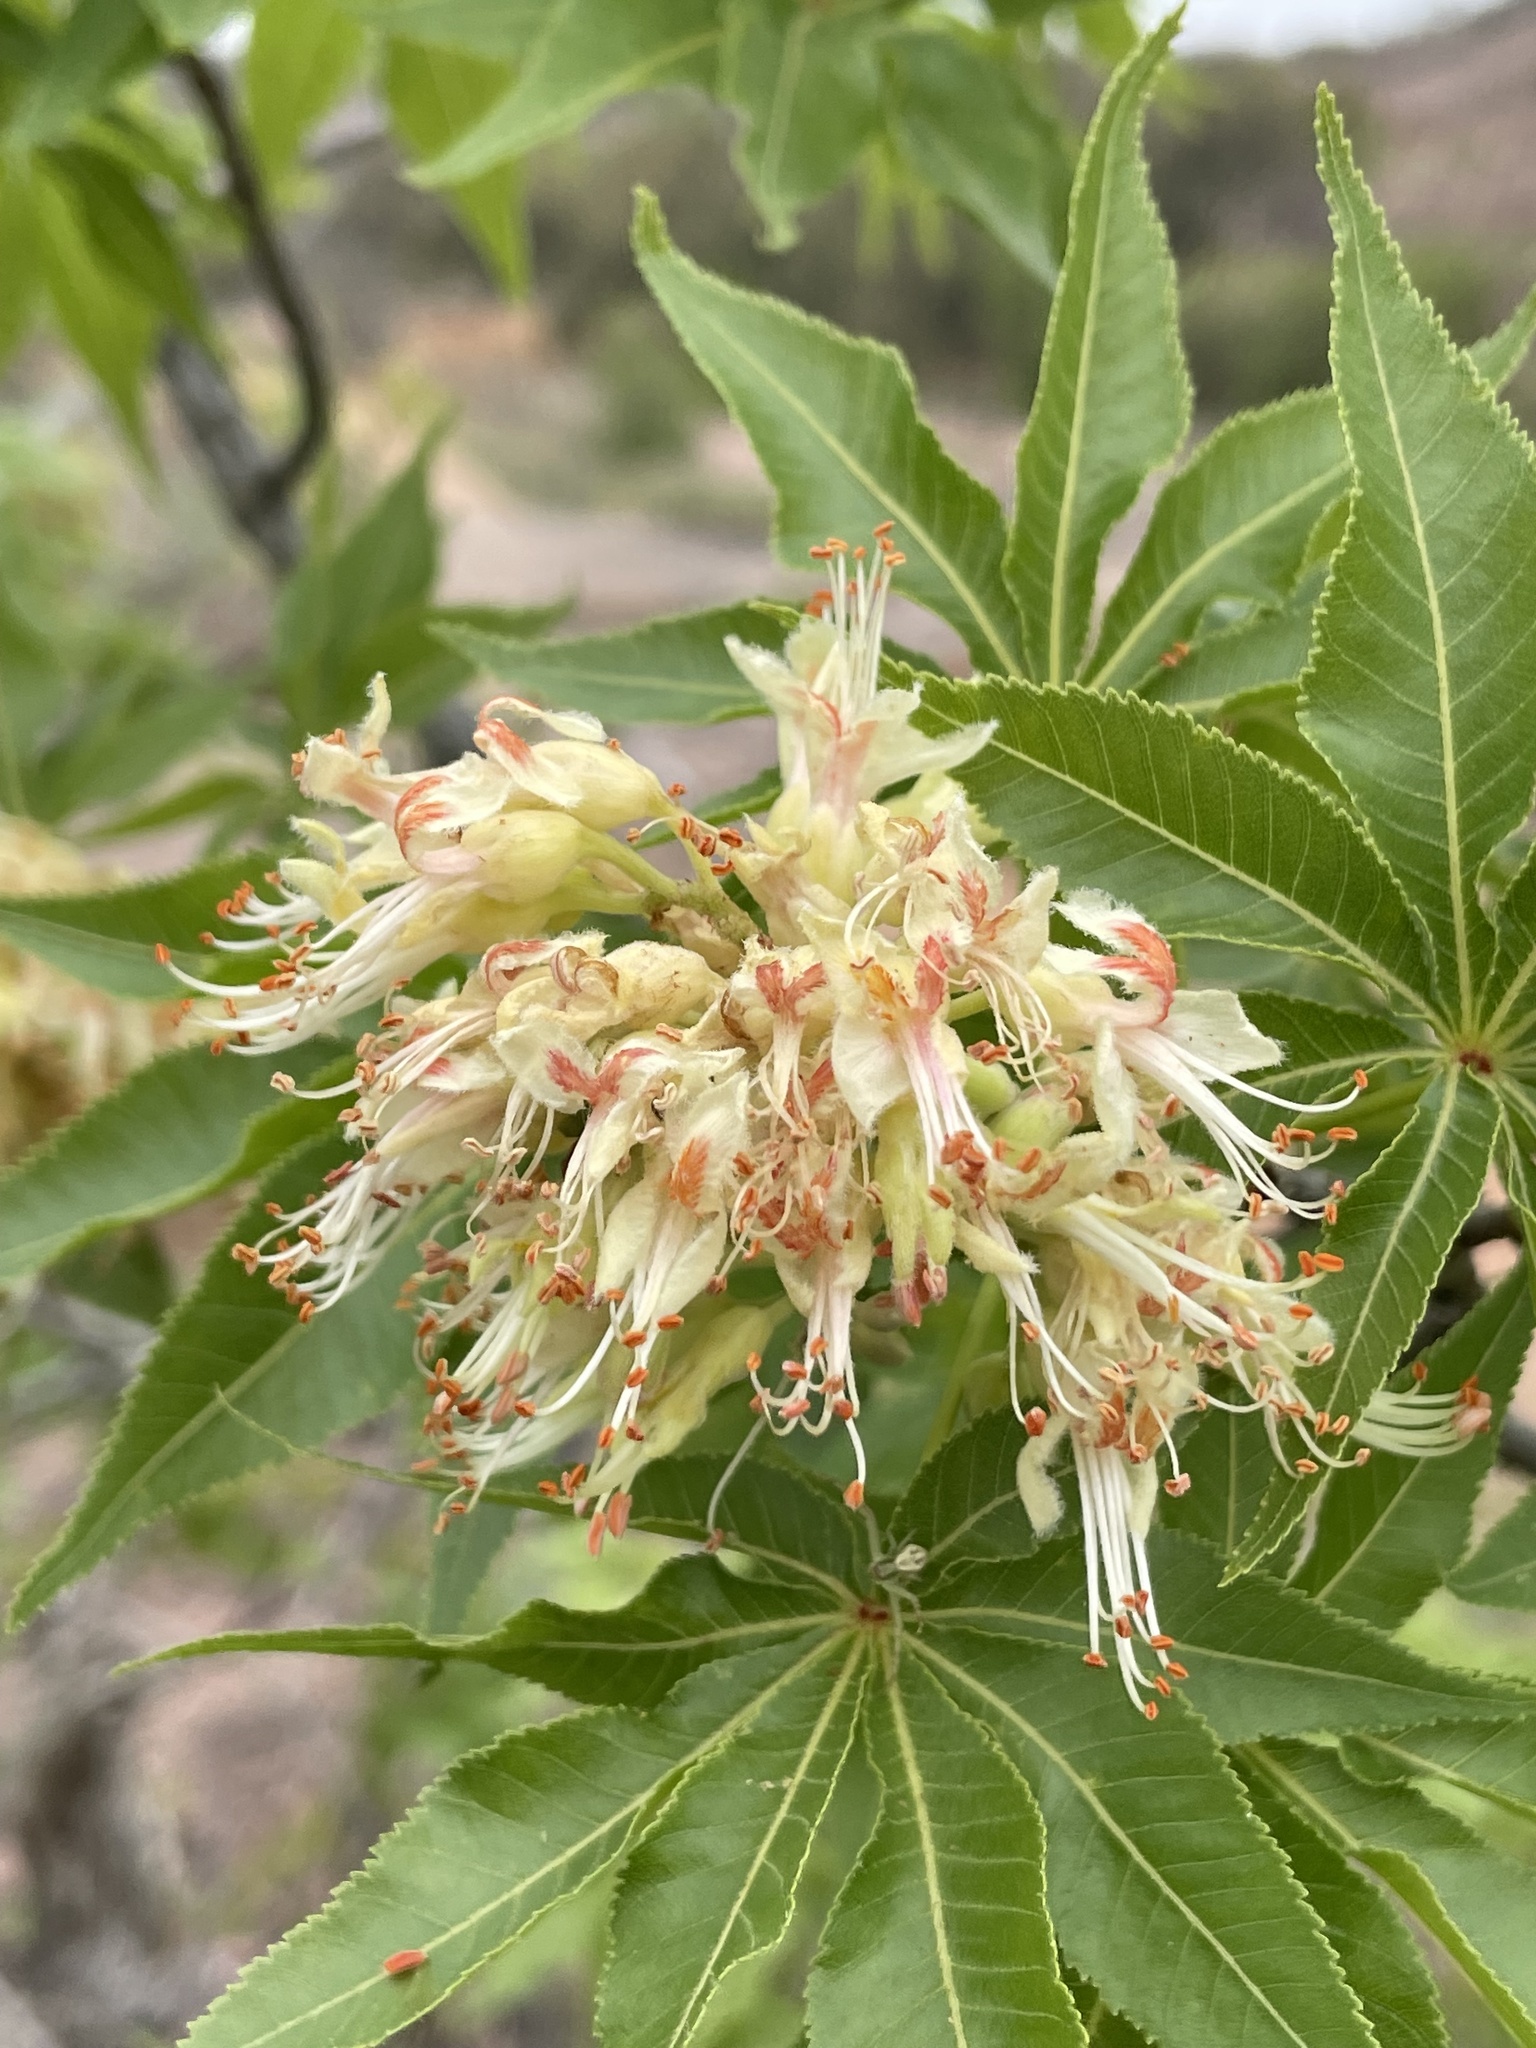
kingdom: Plantae
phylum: Tracheophyta
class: Magnoliopsida
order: Sapindales
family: Sapindaceae
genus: Aesculus
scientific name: Aesculus glabra
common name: Ohio buckeye
